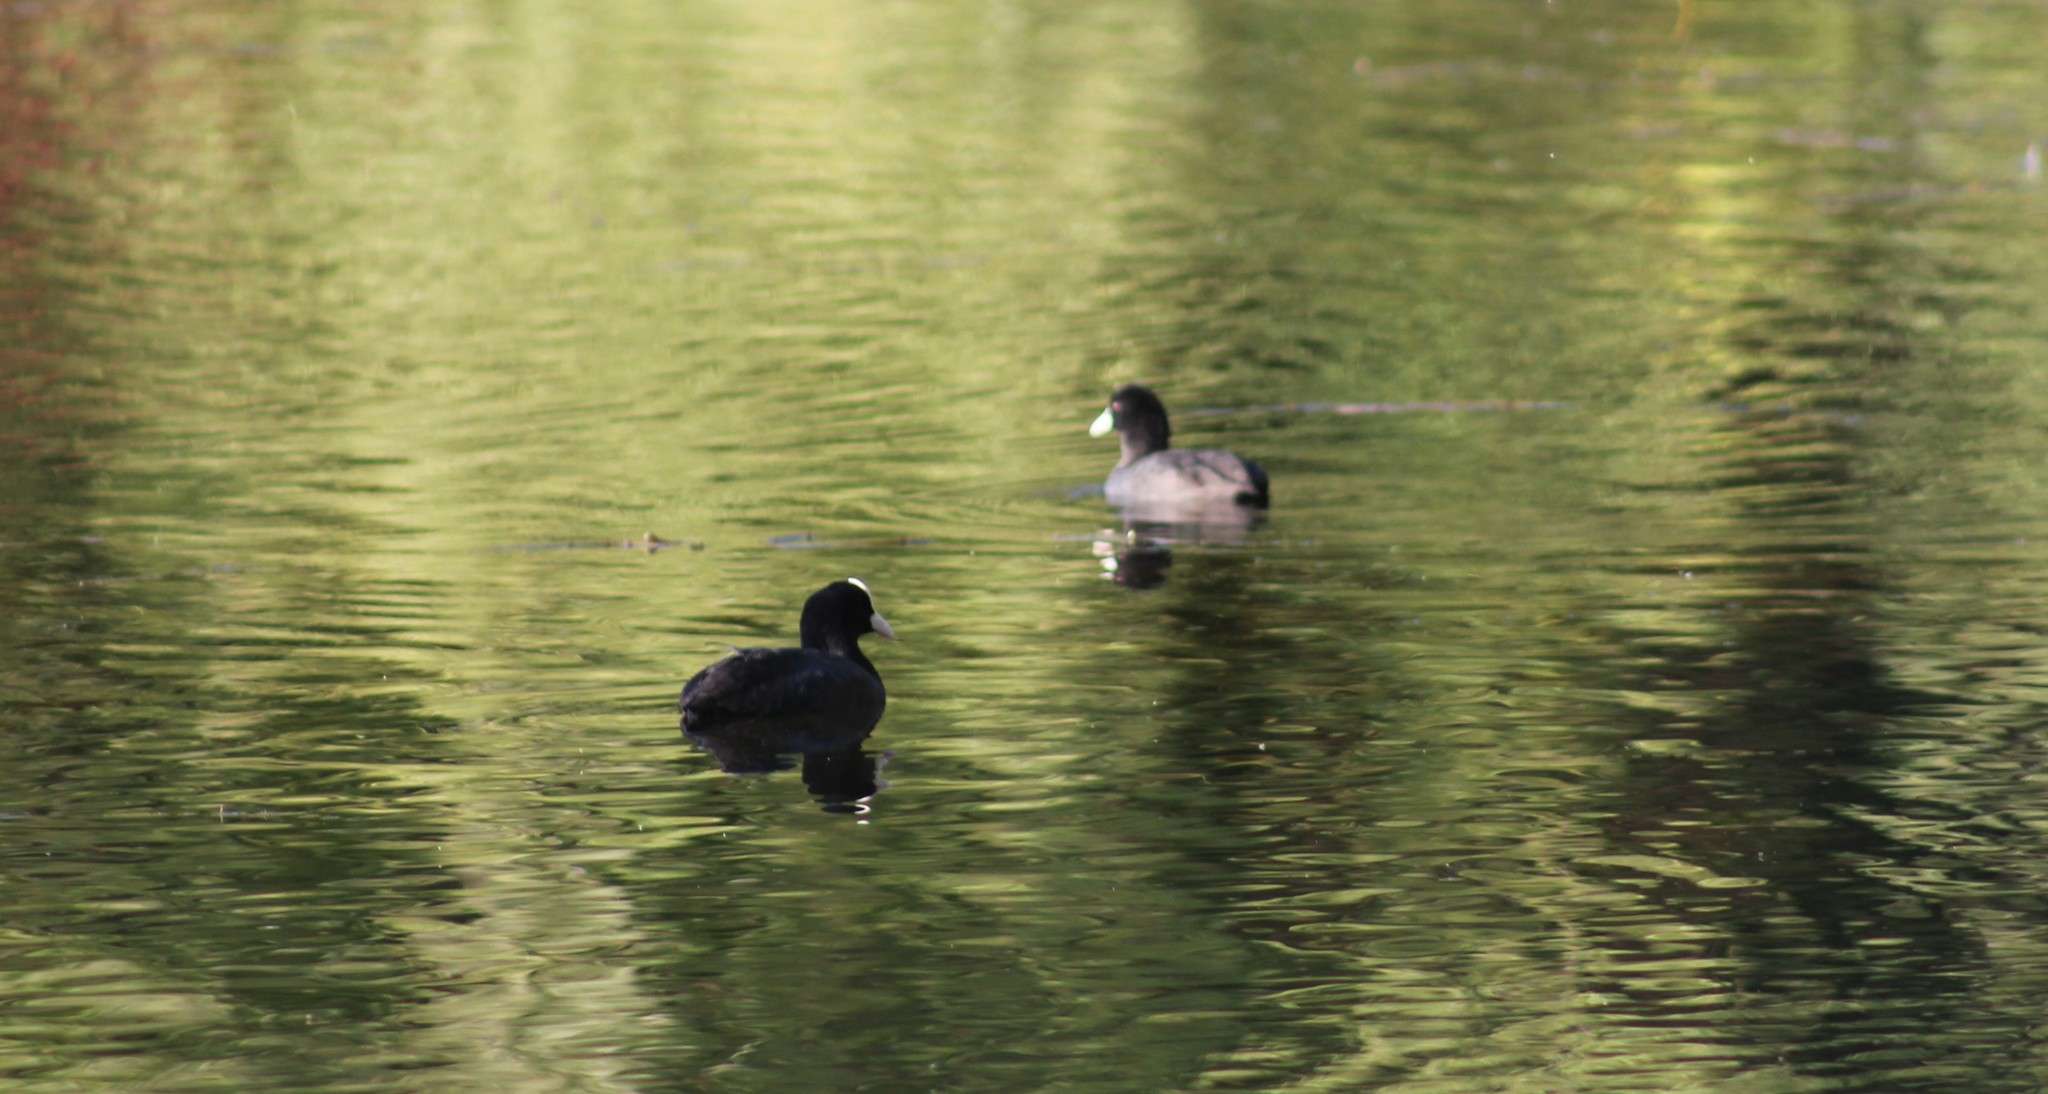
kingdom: Animalia
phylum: Chordata
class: Aves
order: Gruiformes
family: Rallidae
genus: Fulica
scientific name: Fulica atra
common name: Eurasian coot
